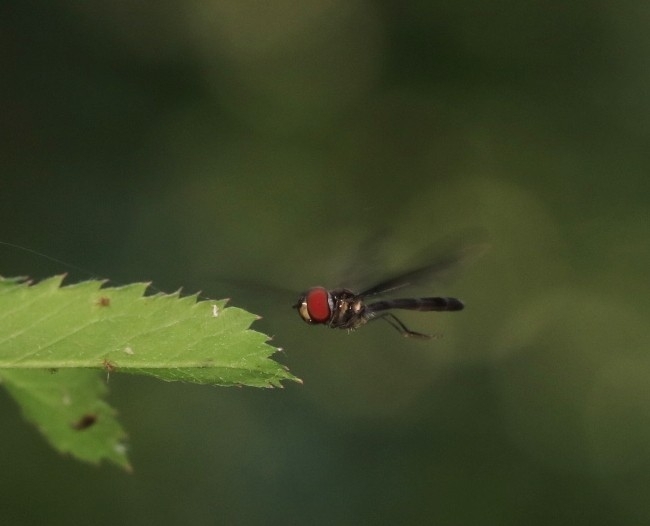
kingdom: Animalia
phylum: Arthropoda
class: Insecta
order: Diptera
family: Syrphidae
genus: Ocyptamus
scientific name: Ocyptamus fuscipennis
